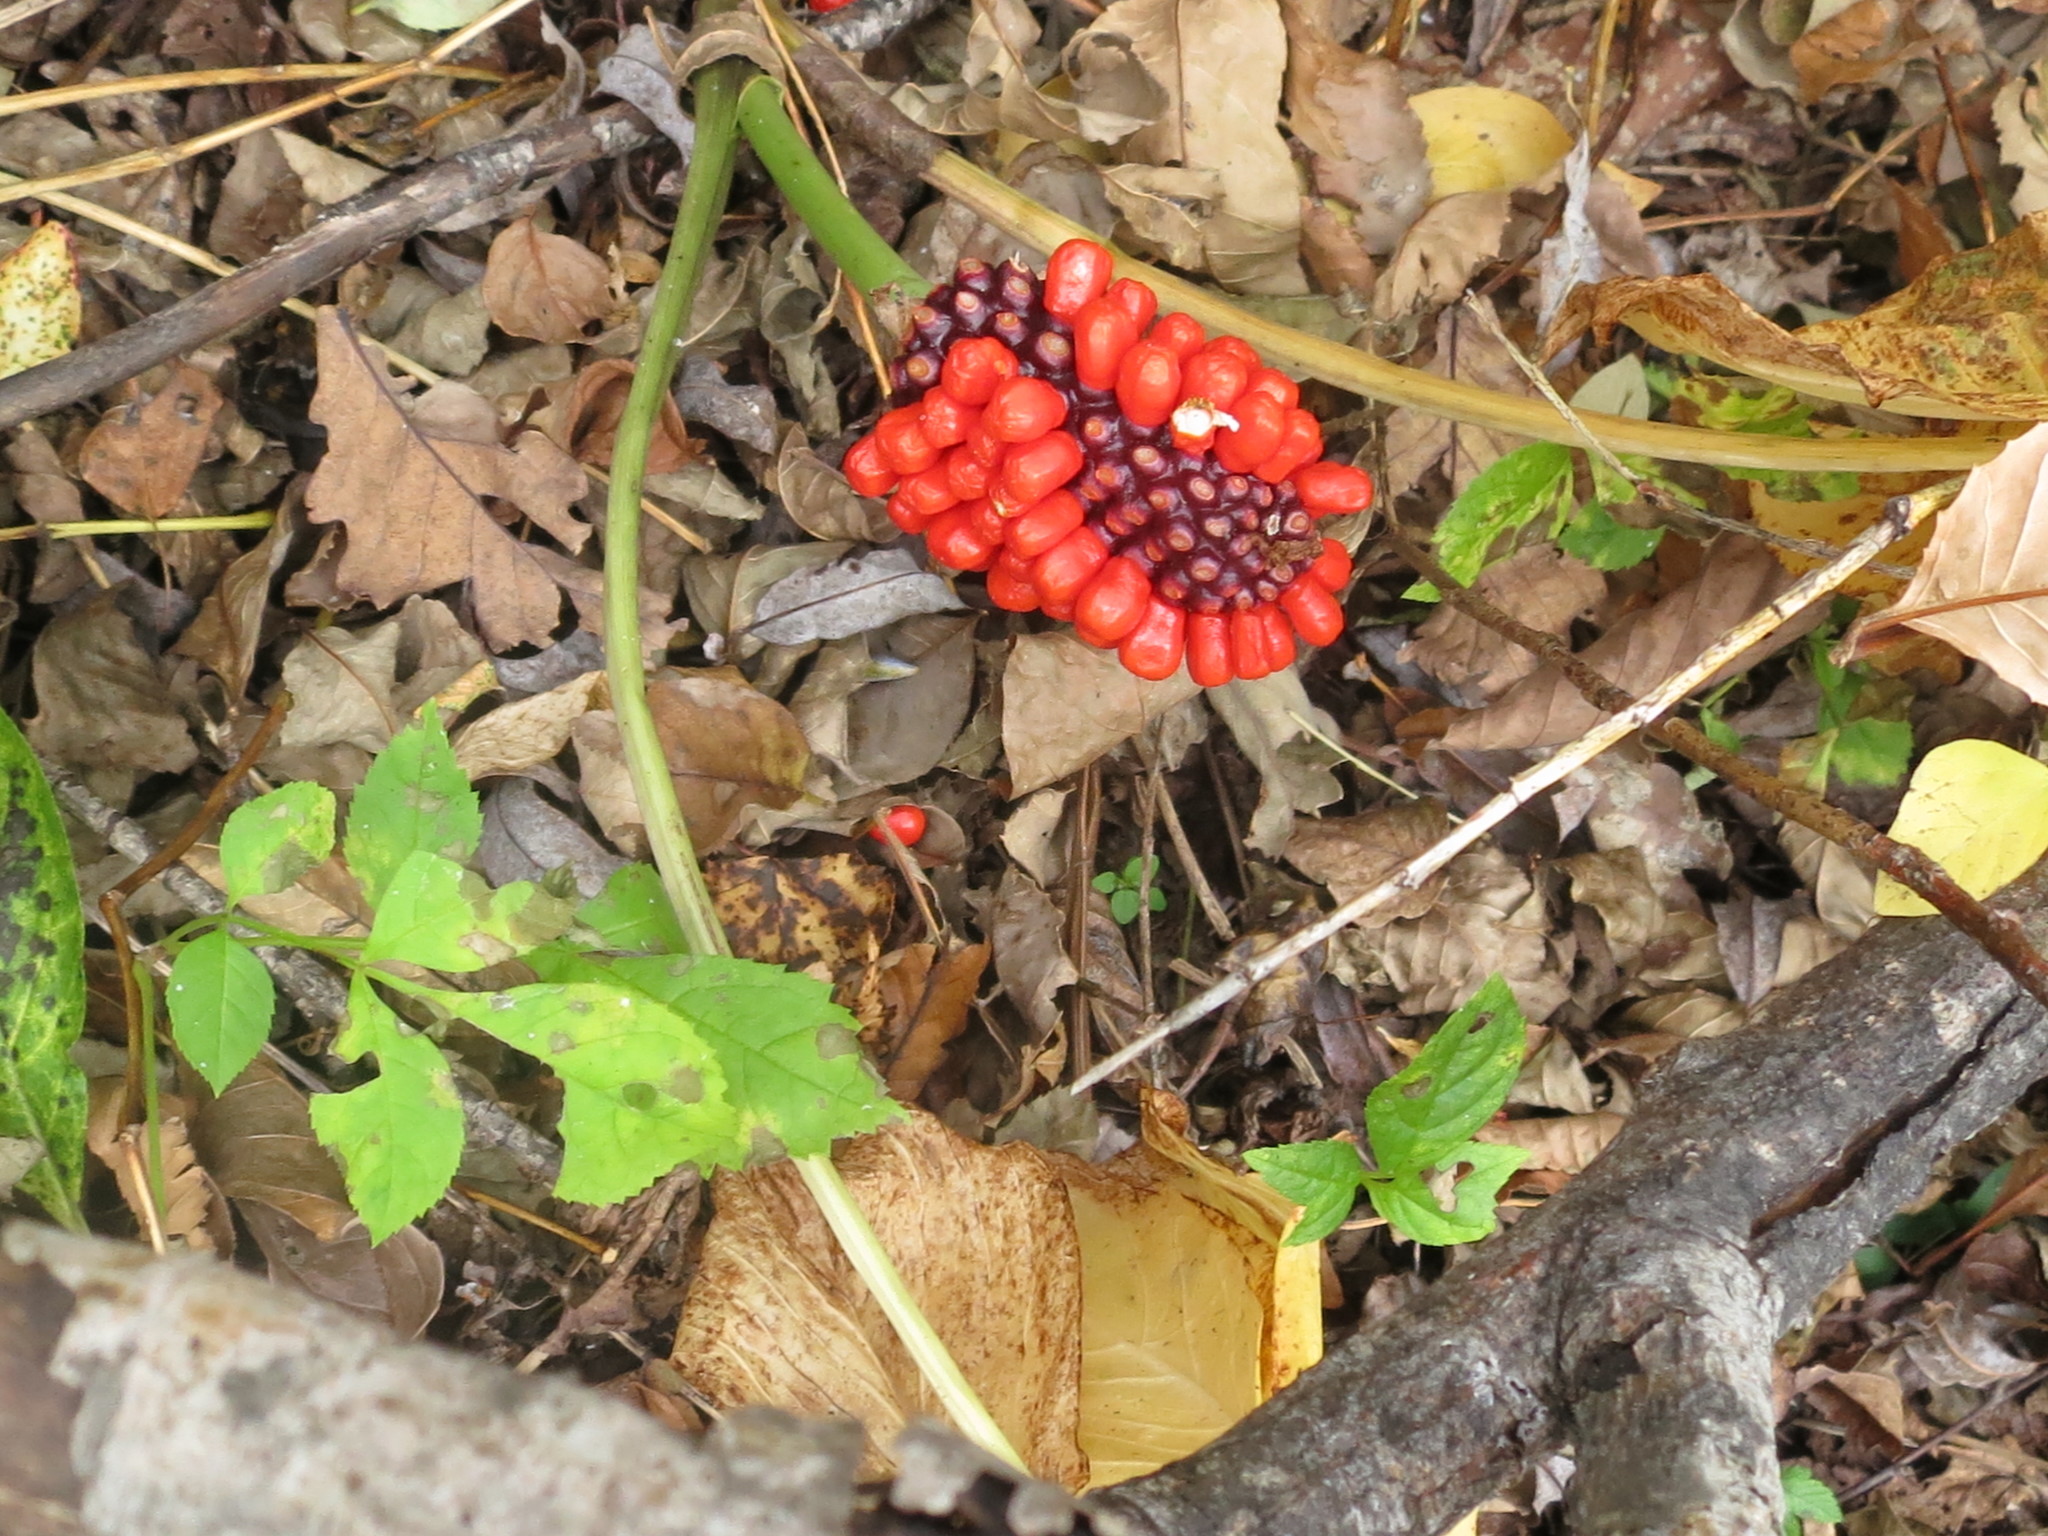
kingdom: Plantae
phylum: Tracheophyta
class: Liliopsida
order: Alismatales
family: Araceae
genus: Arisaema
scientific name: Arisaema amurense
